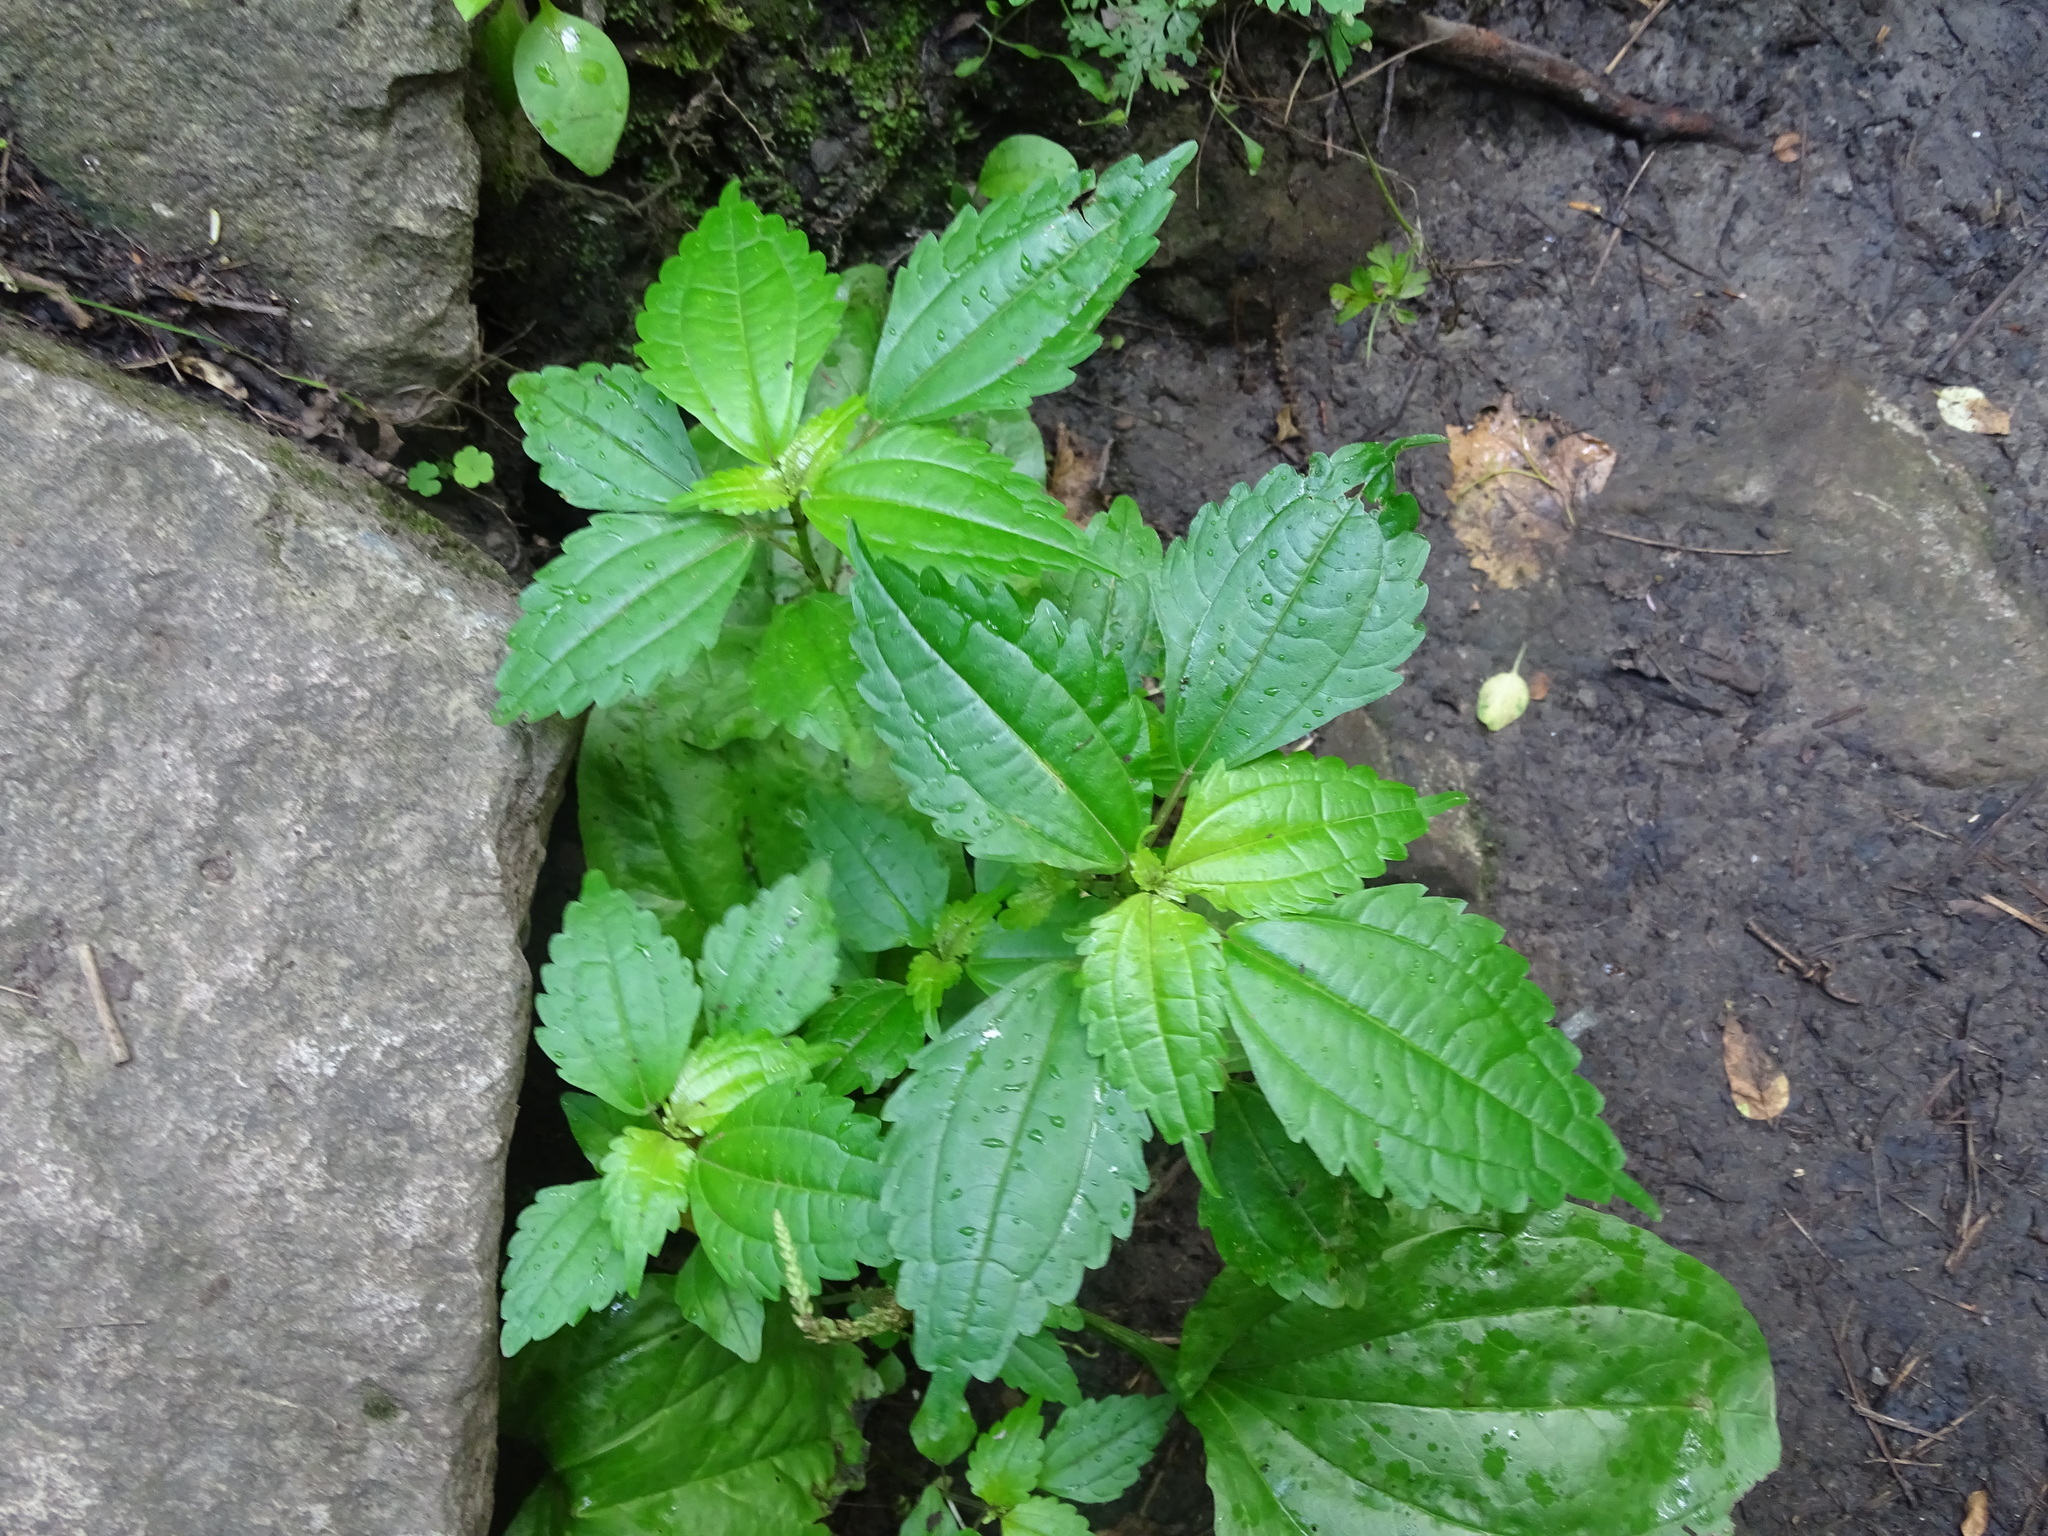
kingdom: Plantae
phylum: Tracheophyta
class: Magnoliopsida
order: Rosales
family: Urticaceae
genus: Pilea
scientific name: Pilea pumila
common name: Clearweed
